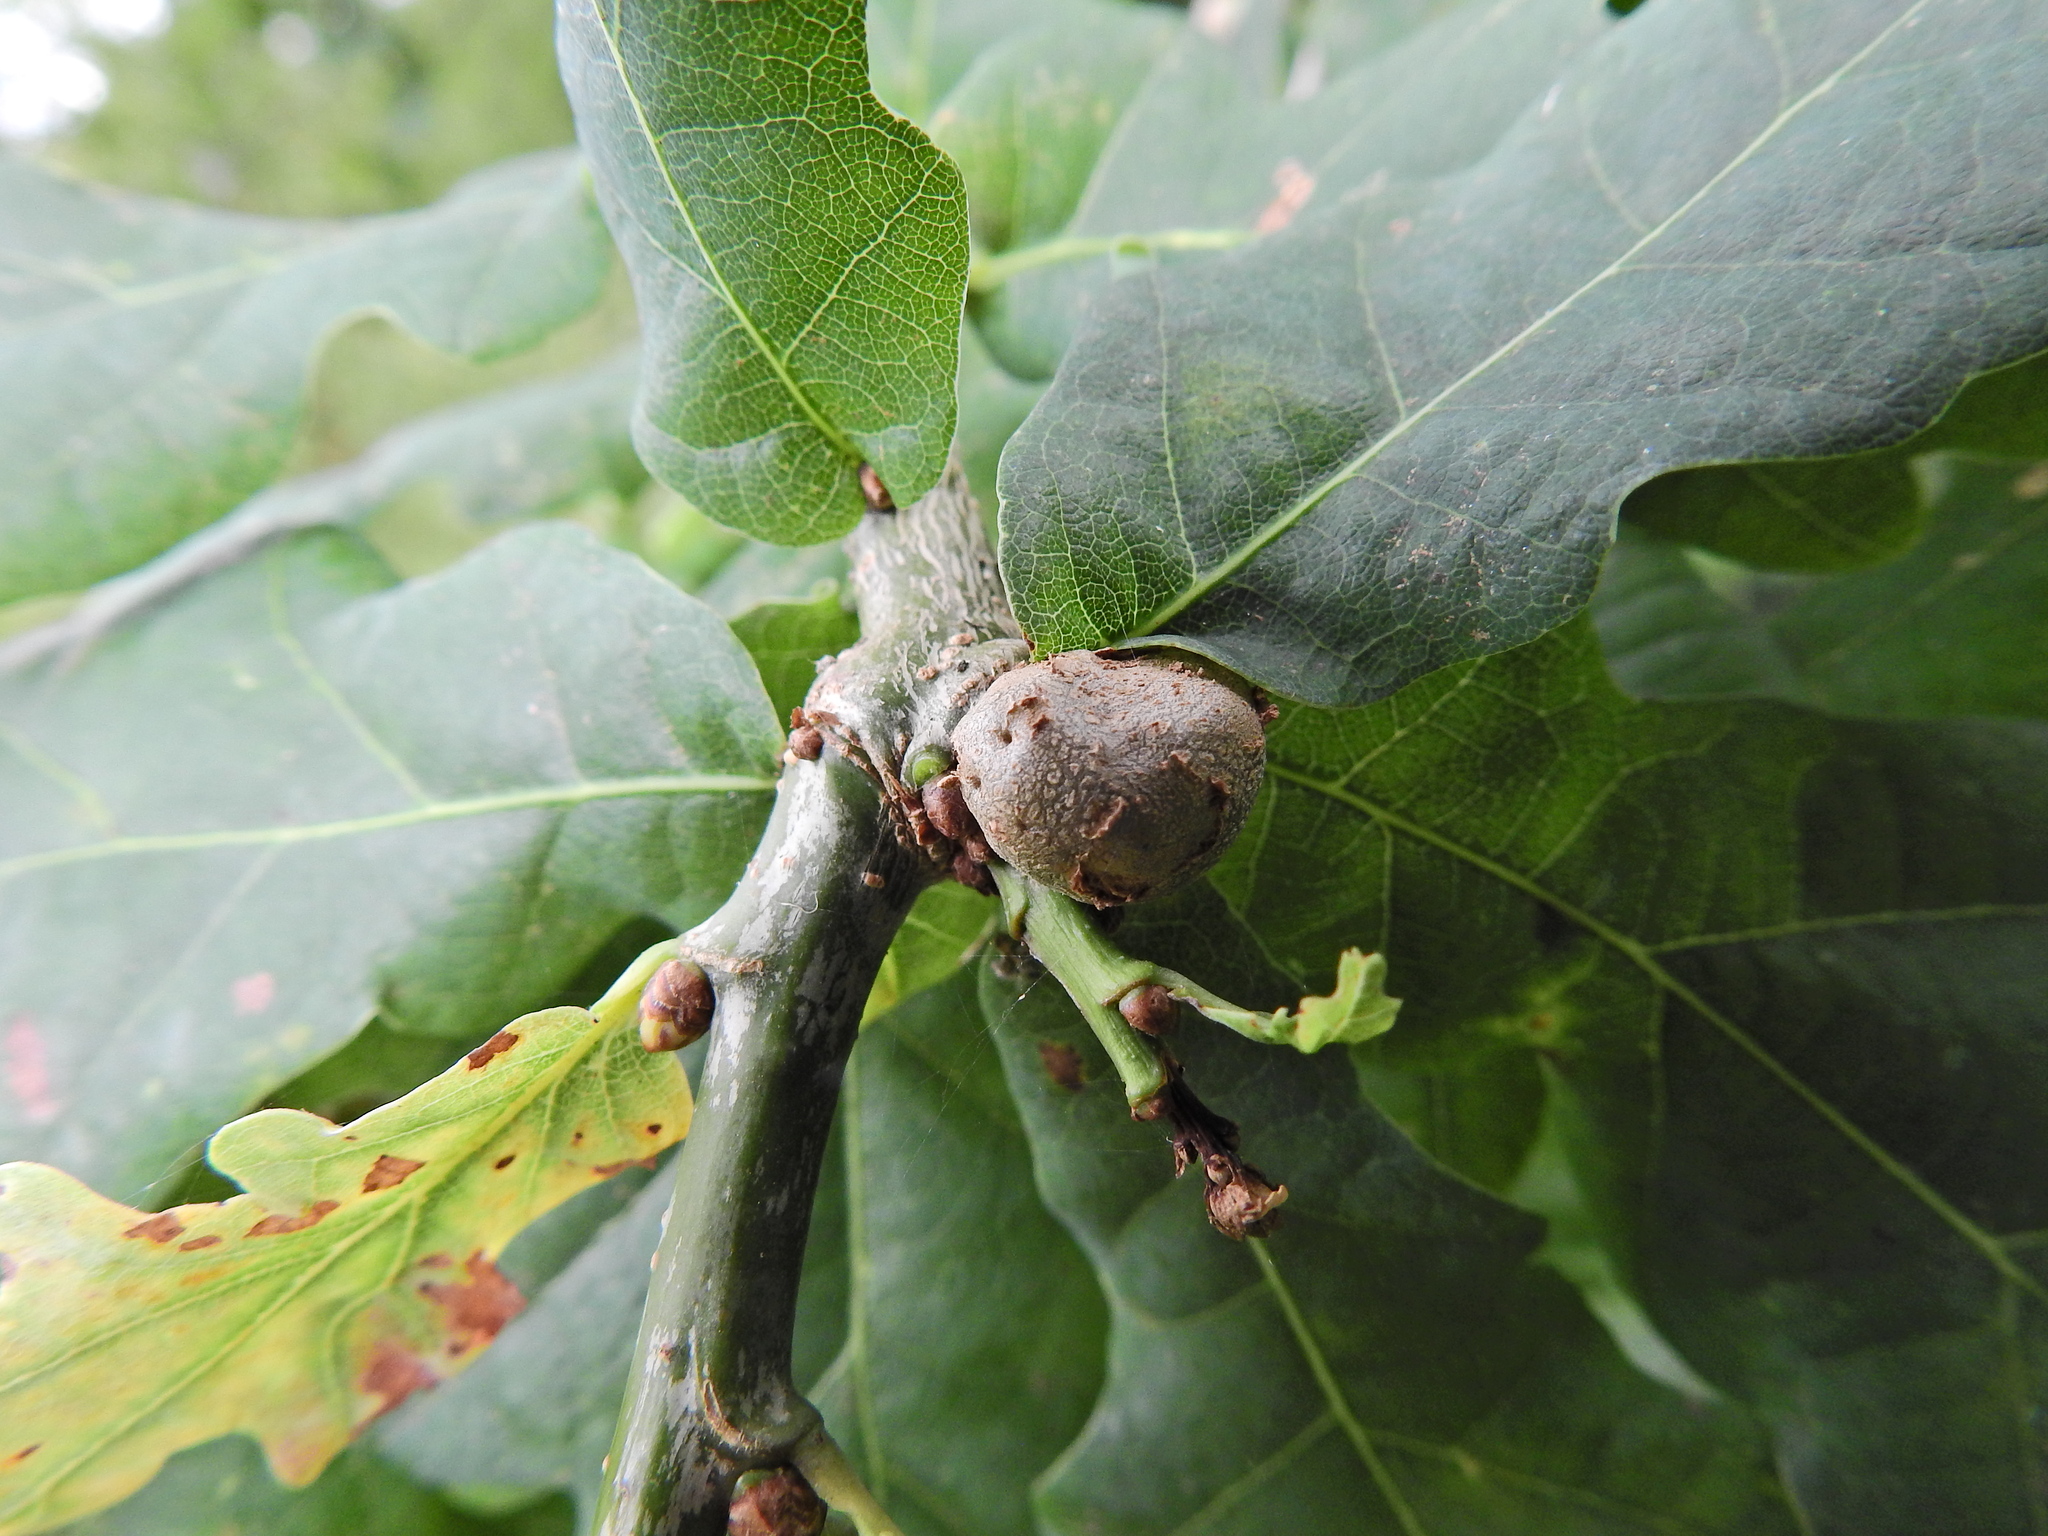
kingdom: Animalia
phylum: Arthropoda
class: Insecta
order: Hymenoptera
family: Cynipidae
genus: Andricus
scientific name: Andricus lignicolus
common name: Cola-nut gall
